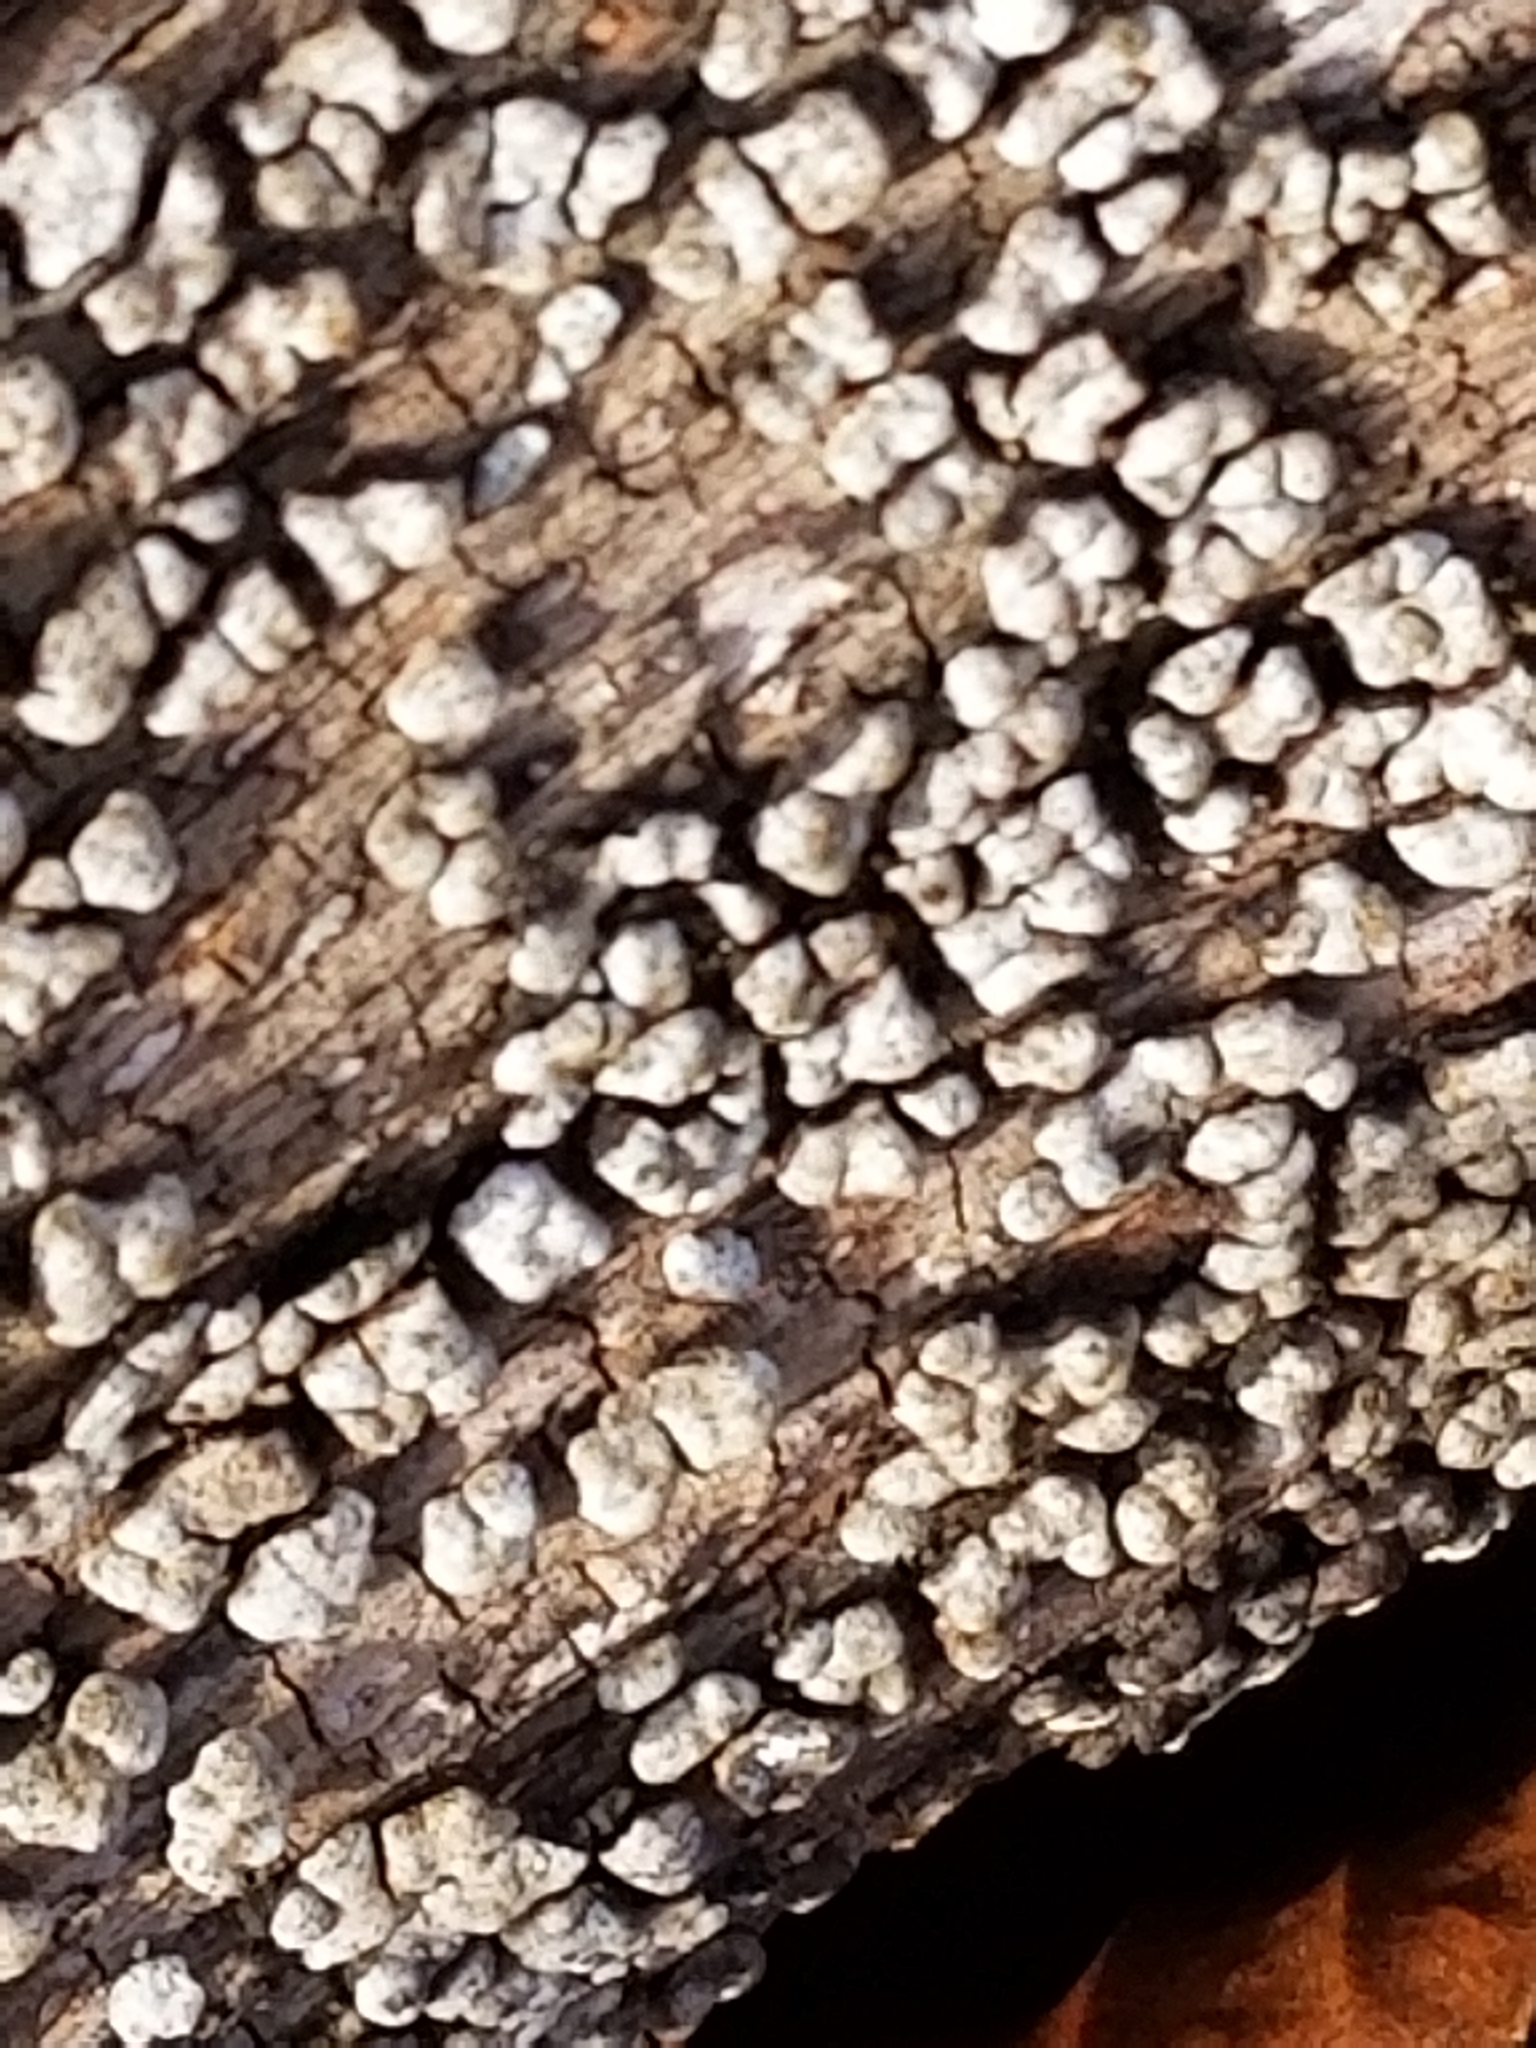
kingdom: Fungi
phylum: Basidiomycota
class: Agaricomycetes
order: Russulales
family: Stereaceae
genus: Xylobolus
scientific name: Xylobolus frustulatus
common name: Ceramic parchment
